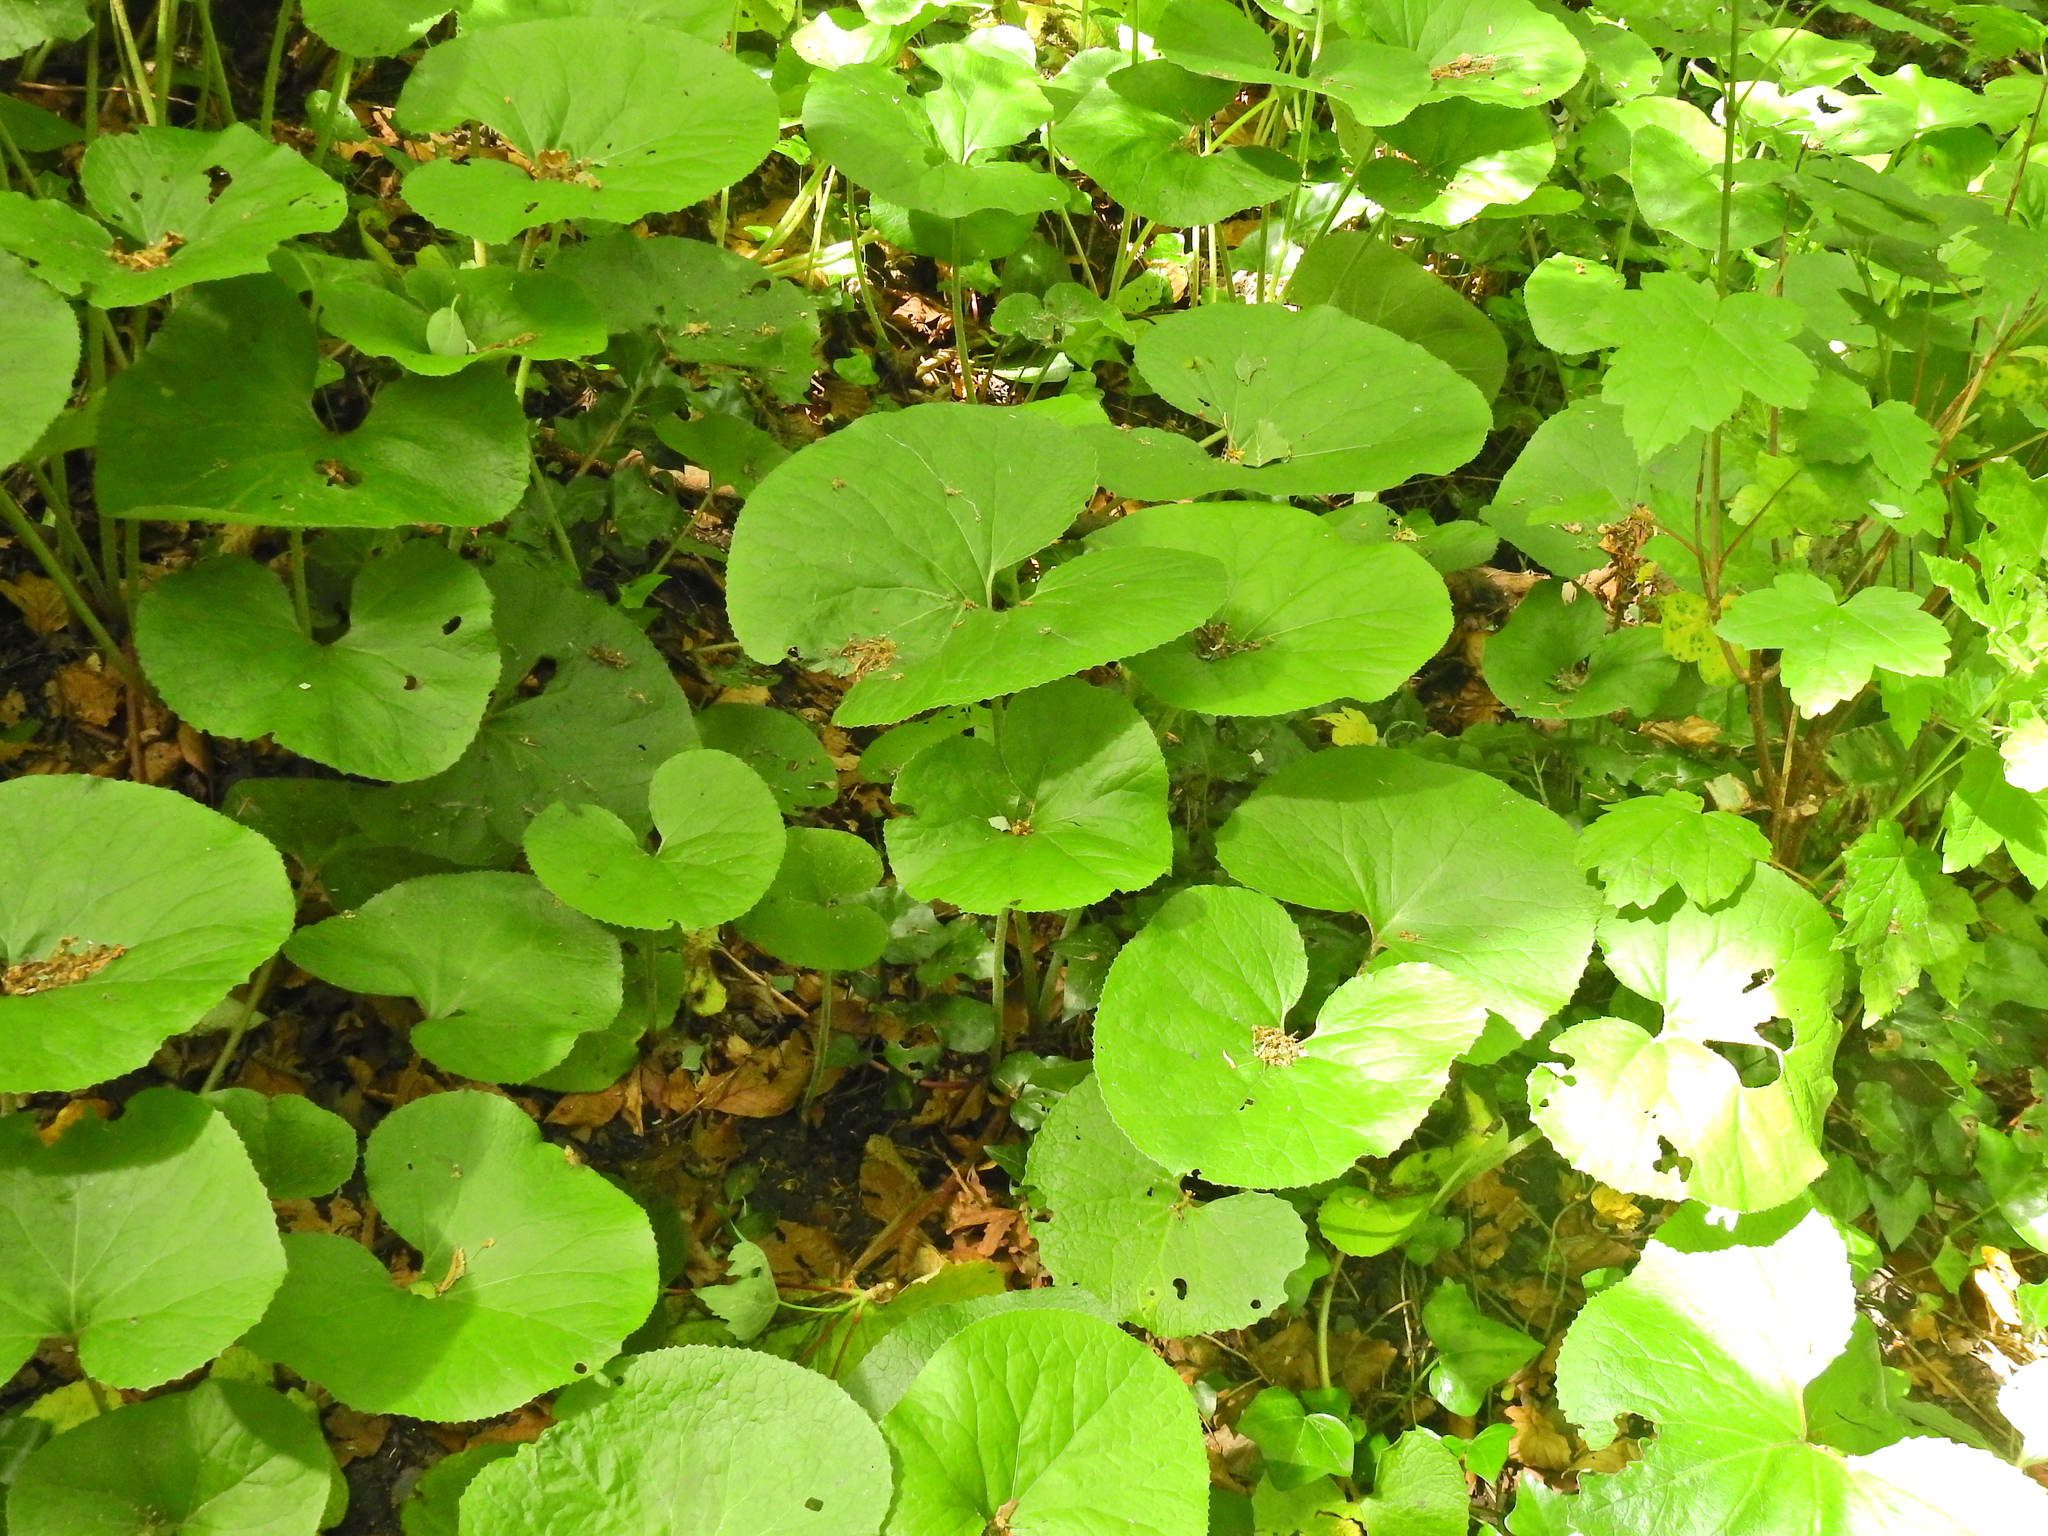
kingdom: Plantae
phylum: Tracheophyta
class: Magnoliopsida
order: Asterales
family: Asteraceae
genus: Petasites
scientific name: Petasites pyrenaicus
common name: Winter heliotrope
